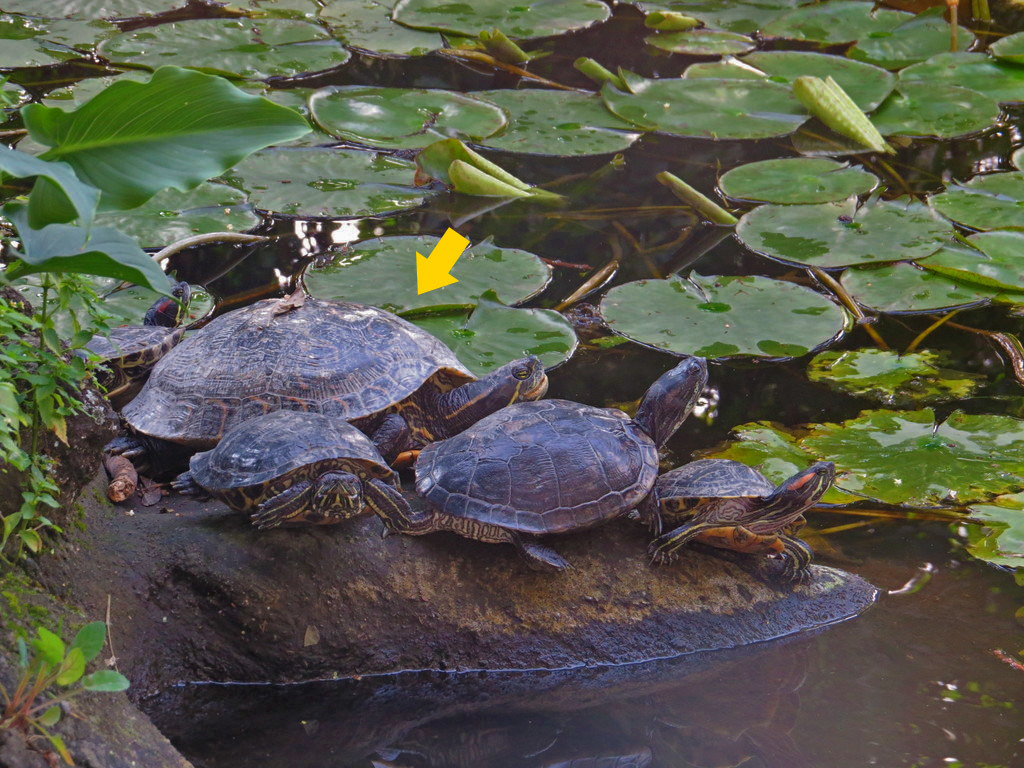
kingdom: Animalia
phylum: Chordata
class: Testudines
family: Emydidae
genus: Trachemys
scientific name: Trachemys venusta
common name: Mesoamerican slider
